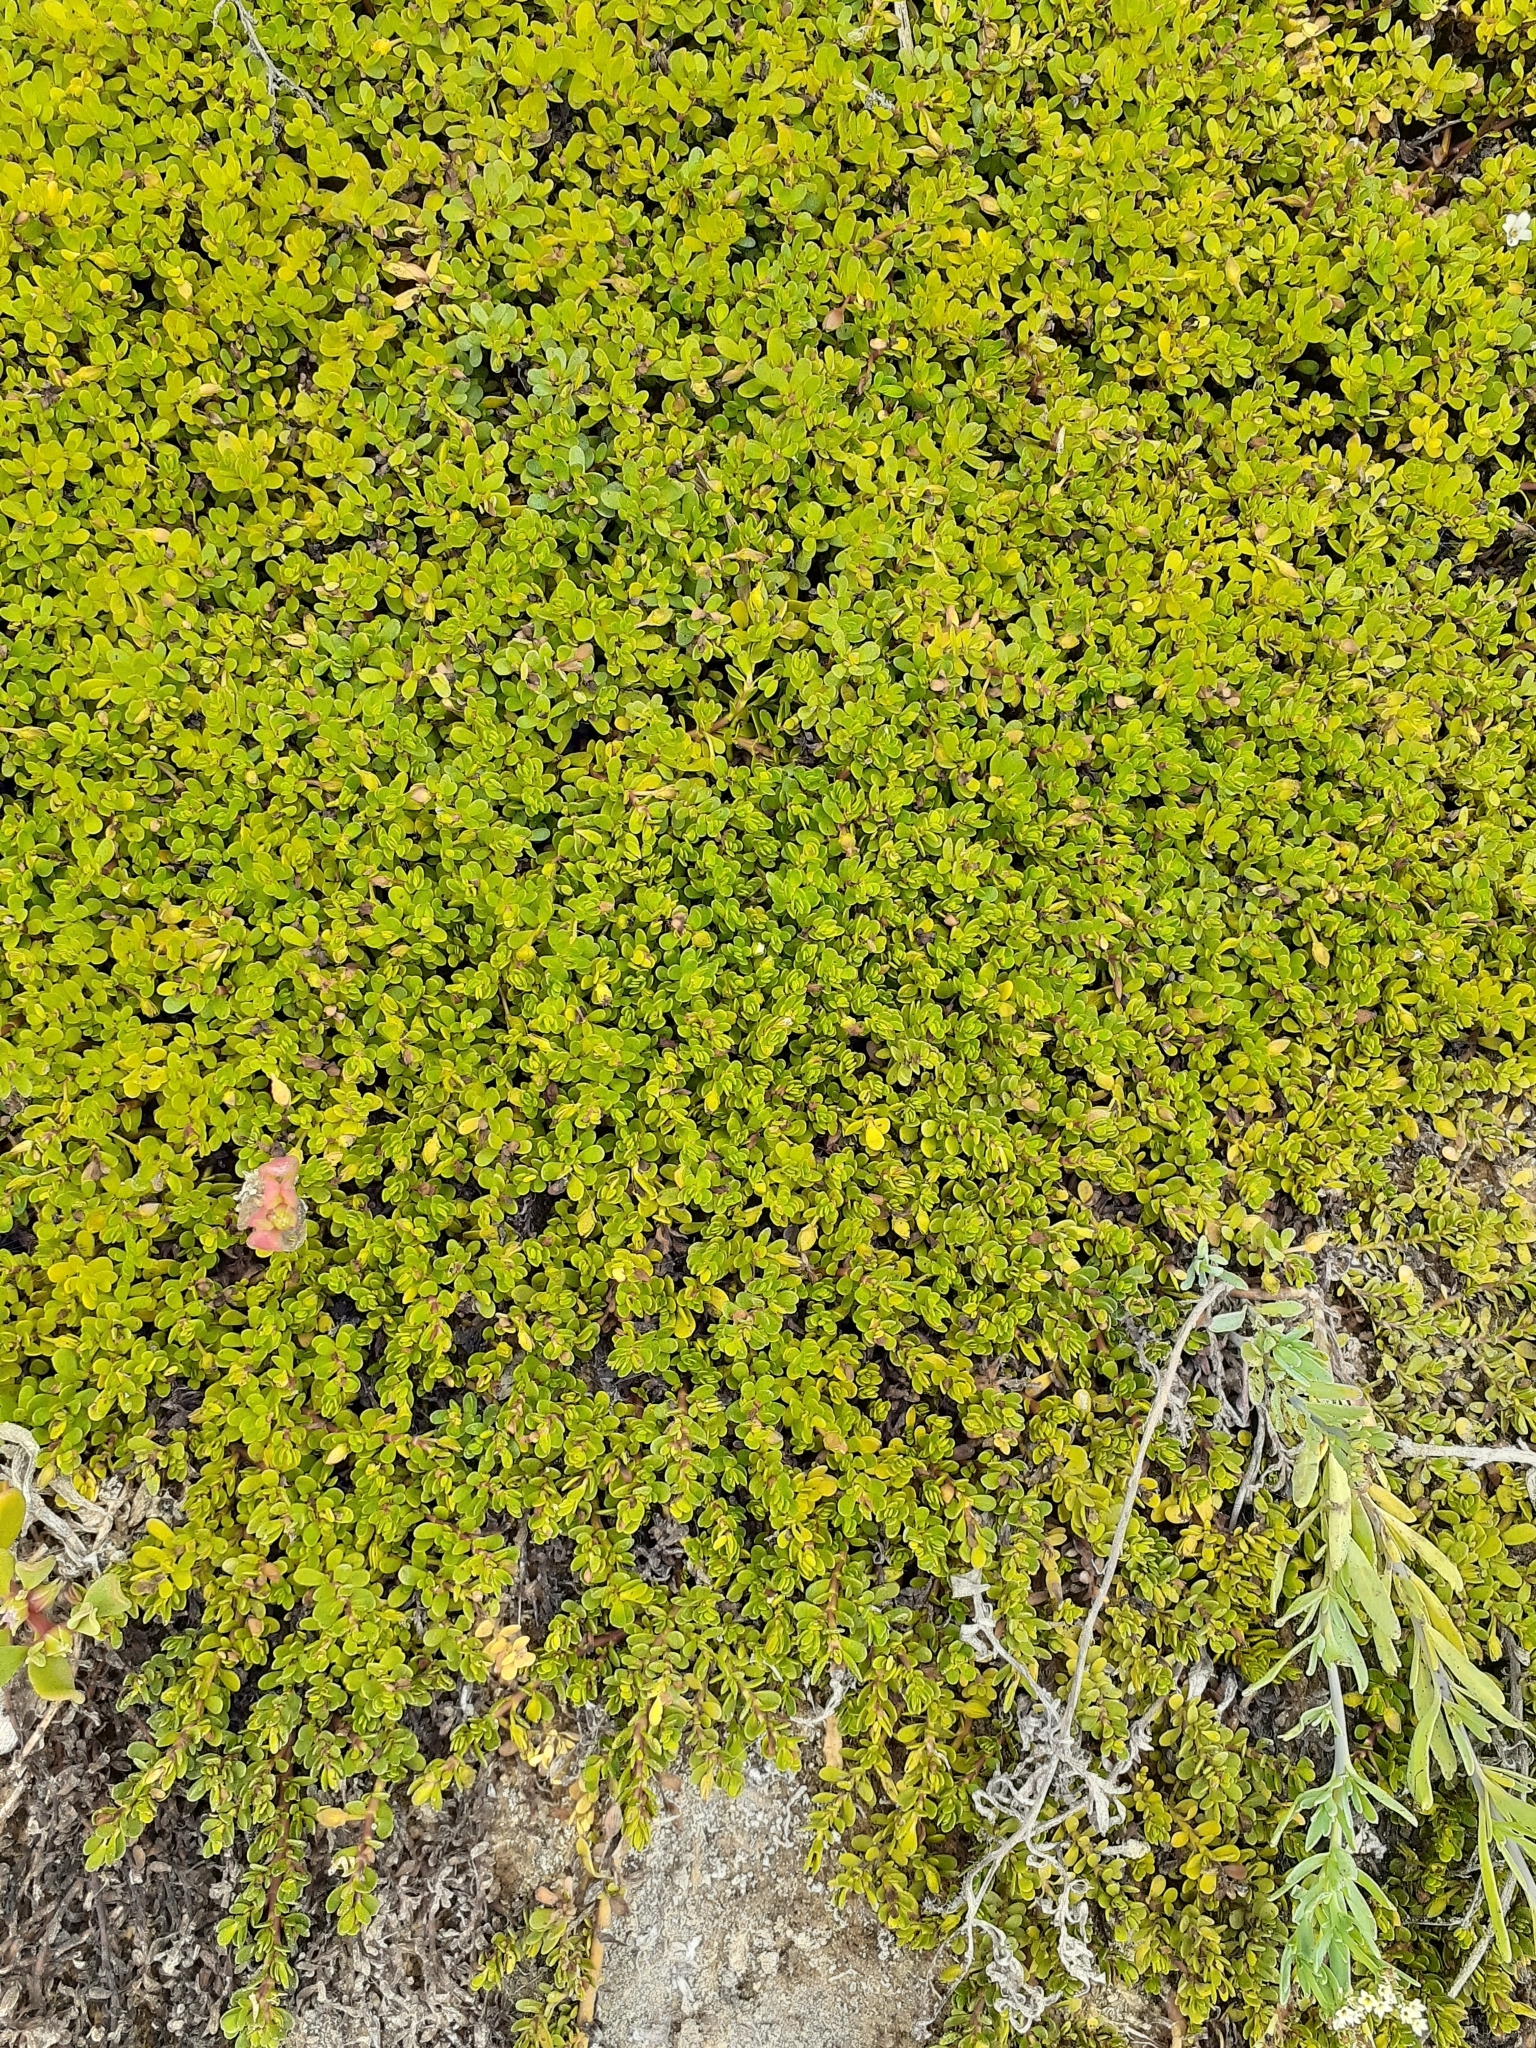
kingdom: Plantae
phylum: Tracheophyta
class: Magnoliopsida
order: Caryophyllales
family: Aizoaceae
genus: Sesuvium
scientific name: Sesuvium portulacastrum
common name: Sea-purslane
